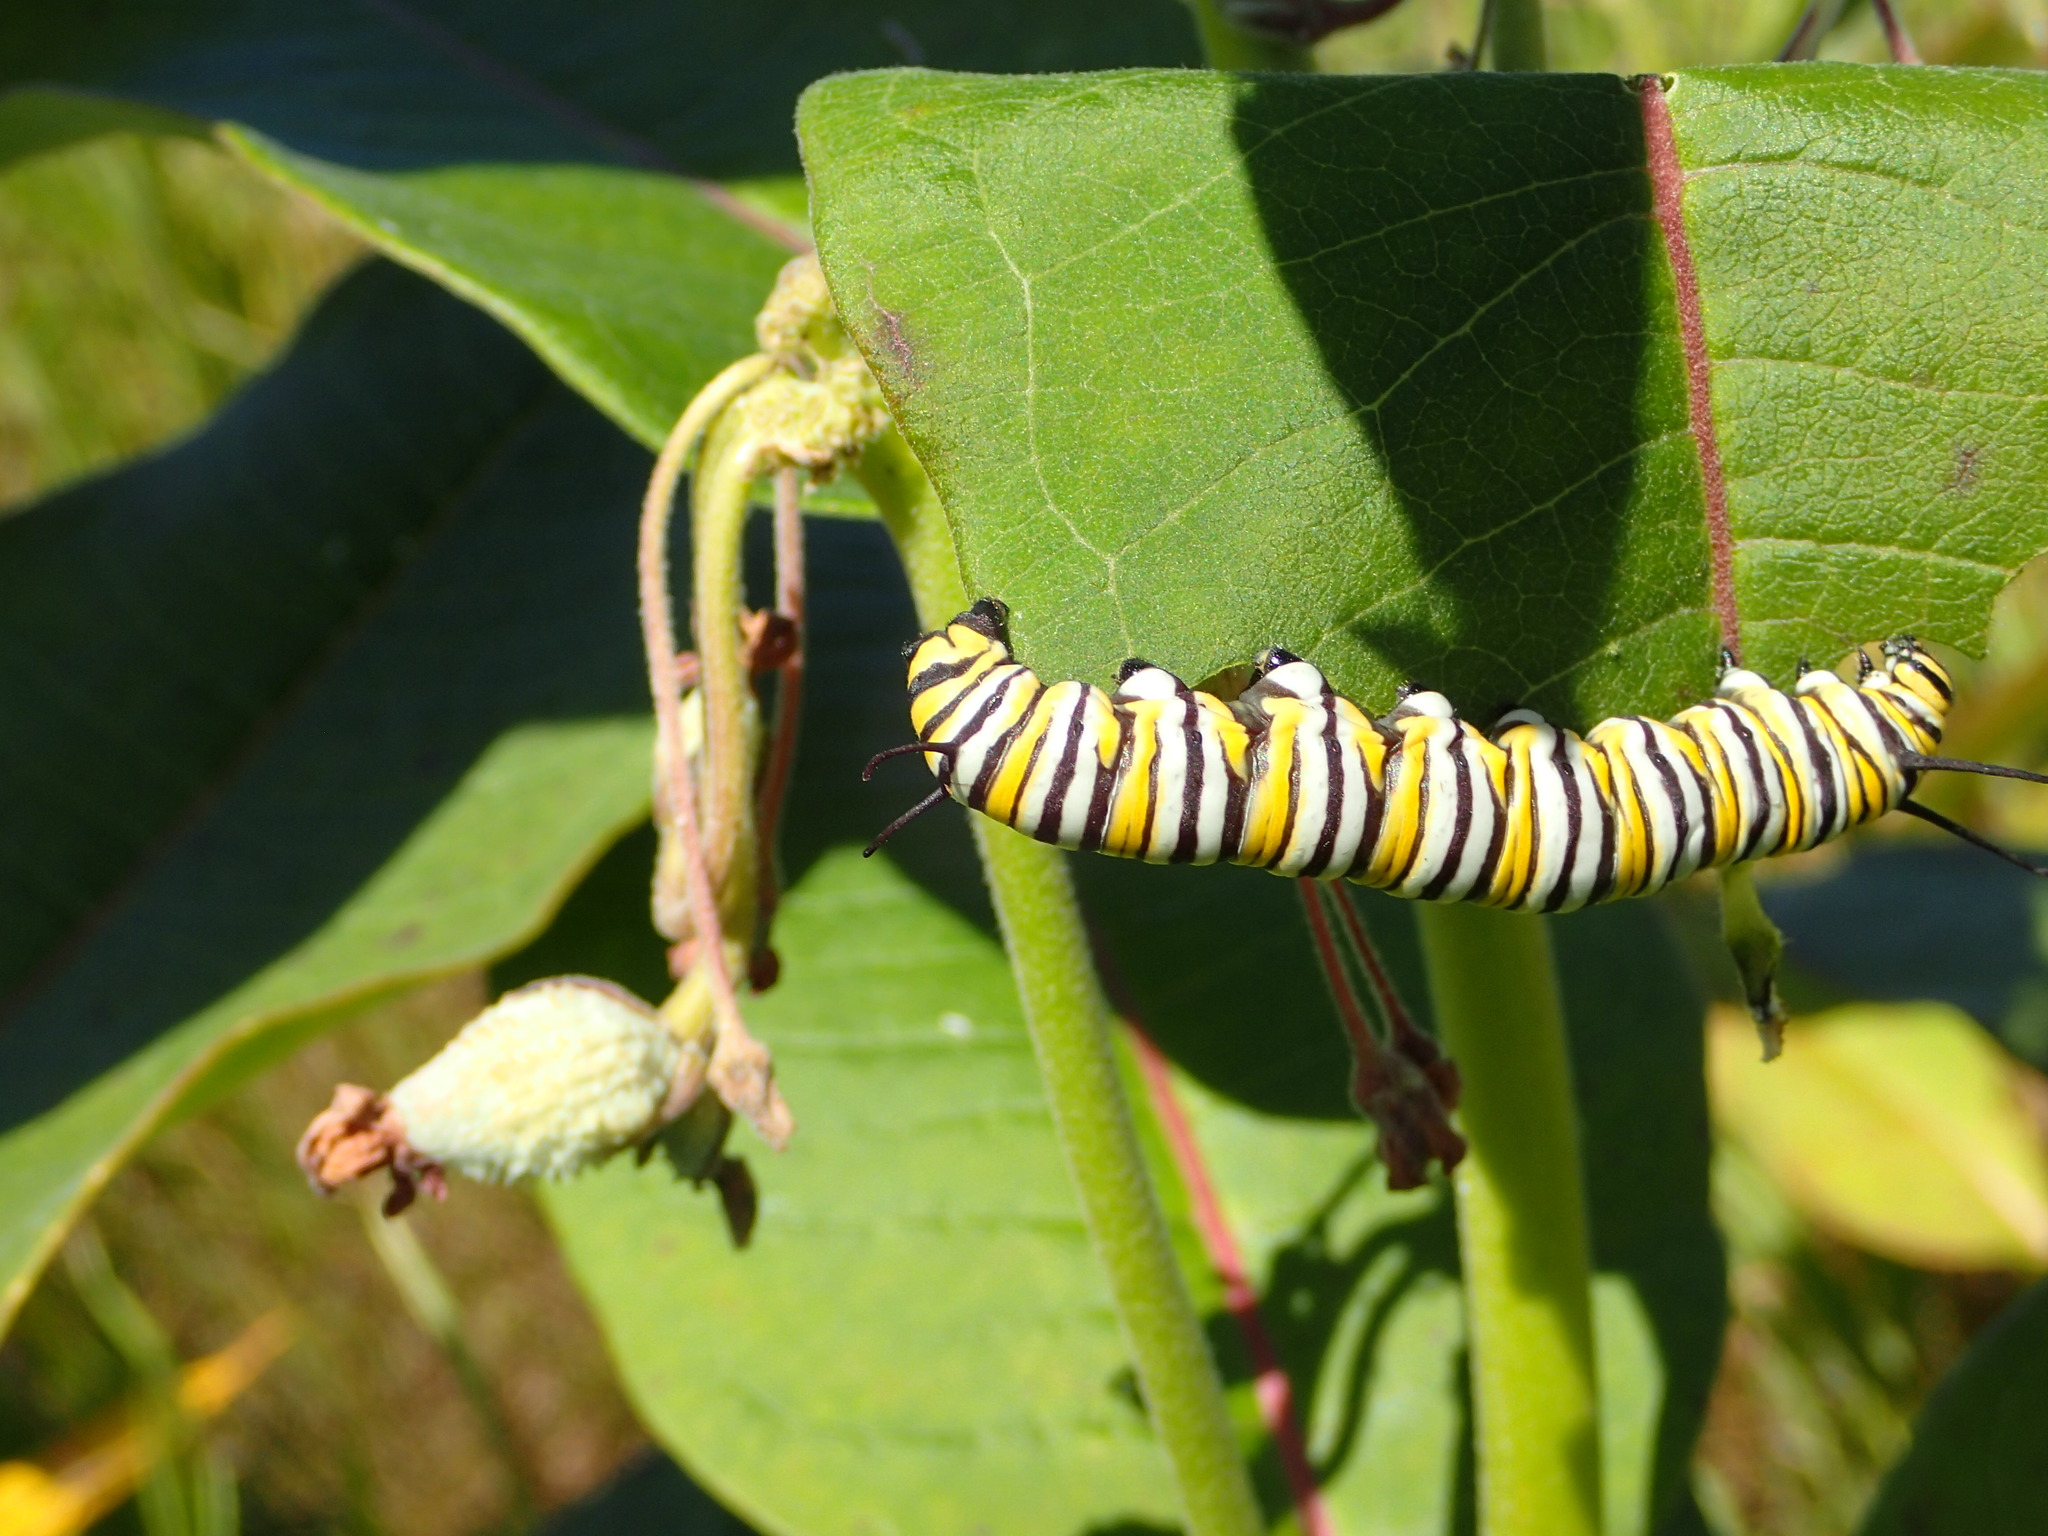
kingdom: Animalia
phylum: Arthropoda
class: Insecta
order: Lepidoptera
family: Nymphalidae
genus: Danaus
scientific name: Danaus plexippus
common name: Monarch
